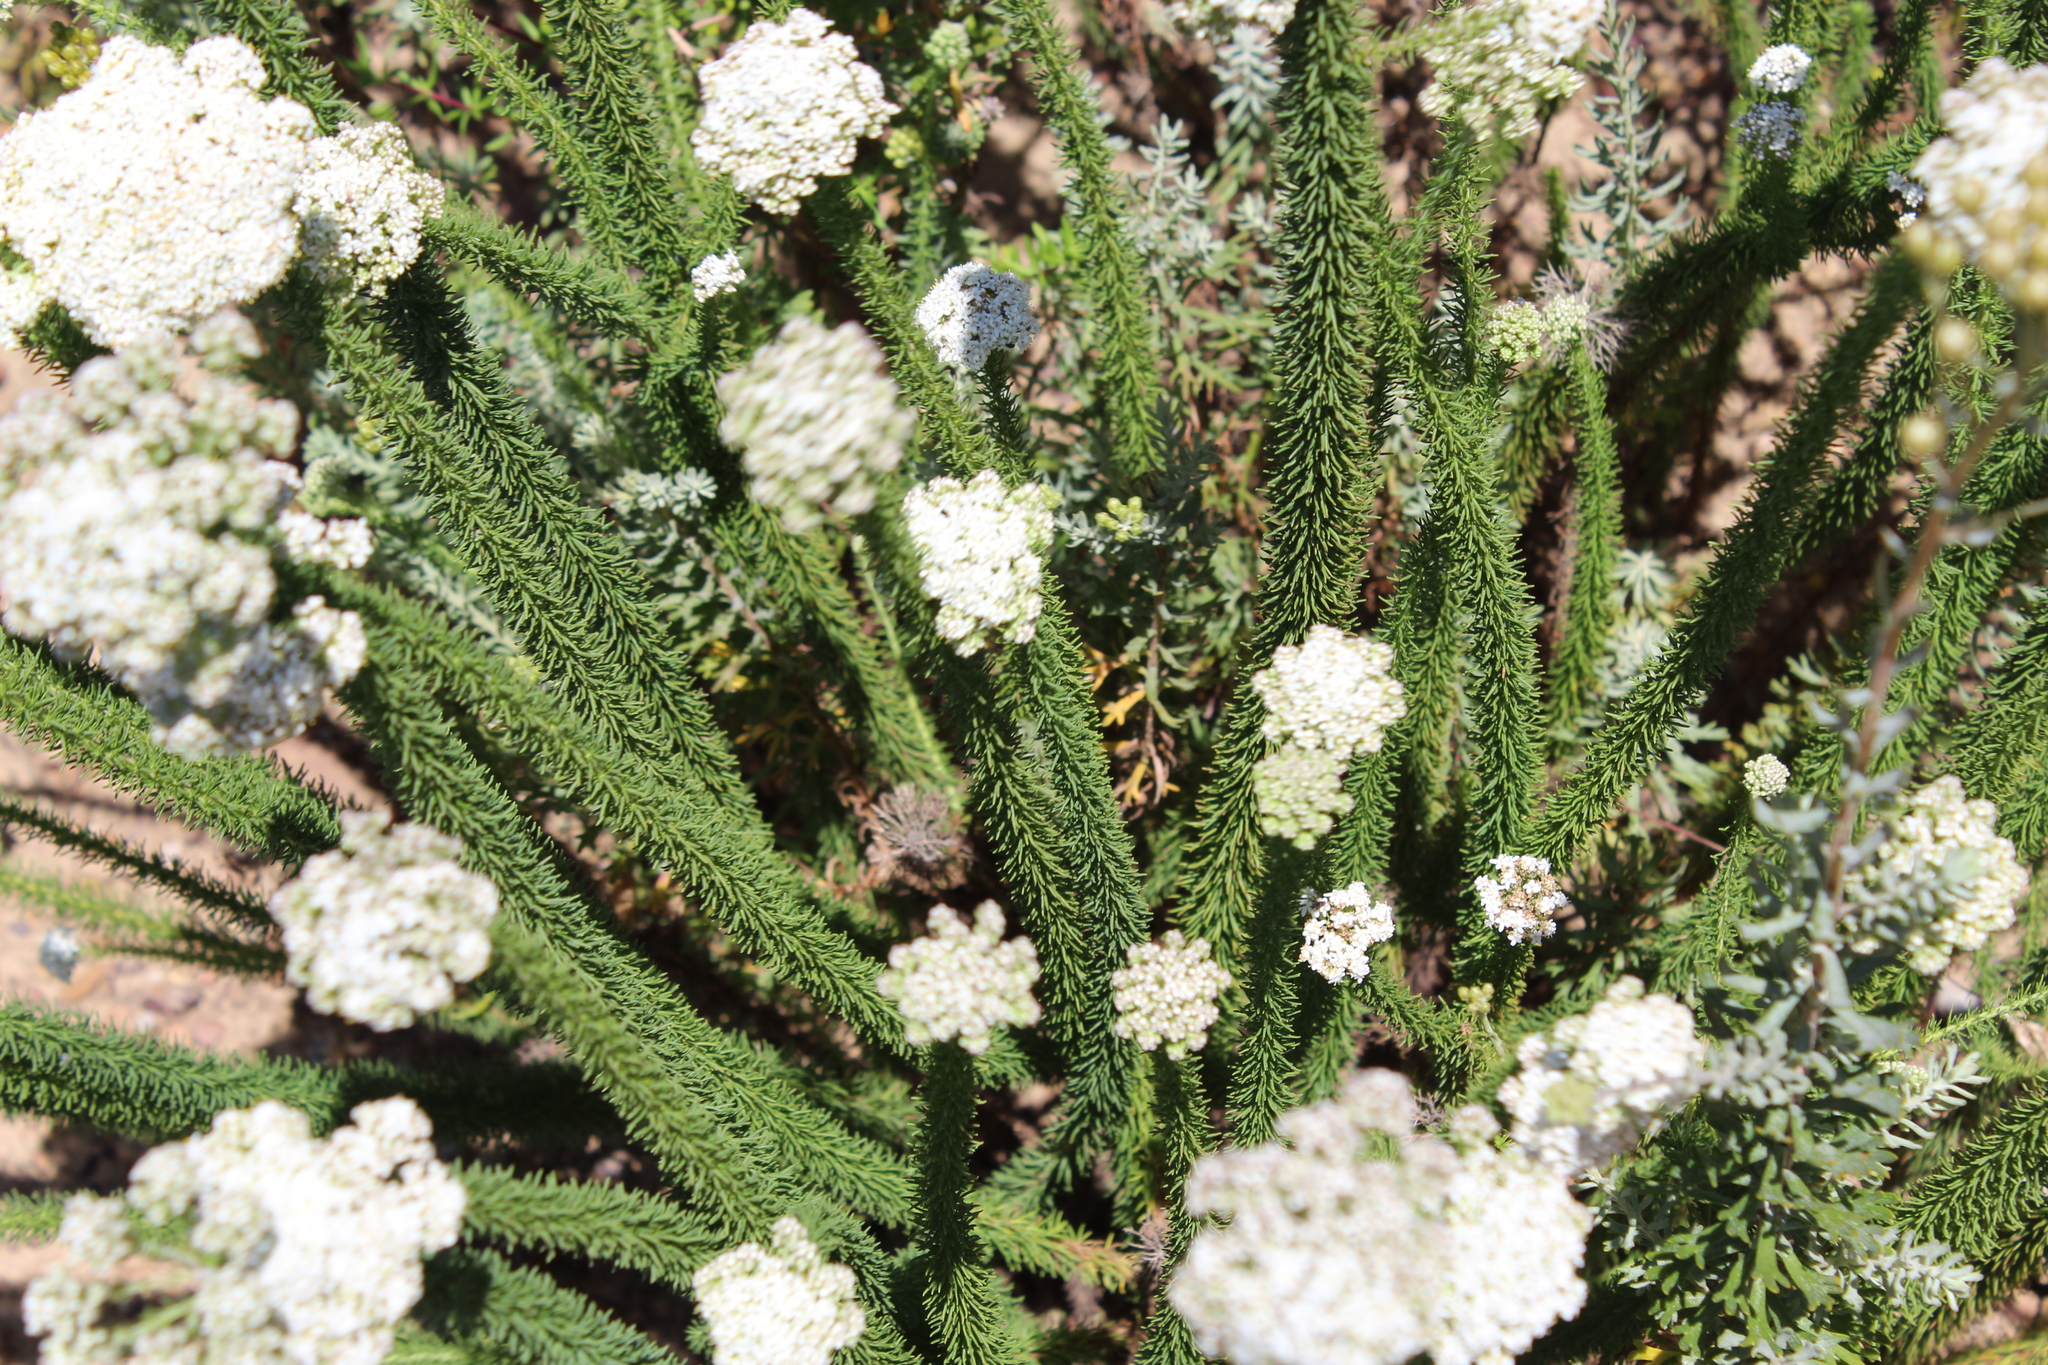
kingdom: Plantae
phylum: Tracheophyta
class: Magnoliopsida
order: Lamiales
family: Scrophulariaceae
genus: Selago
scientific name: Selago corymbosa
